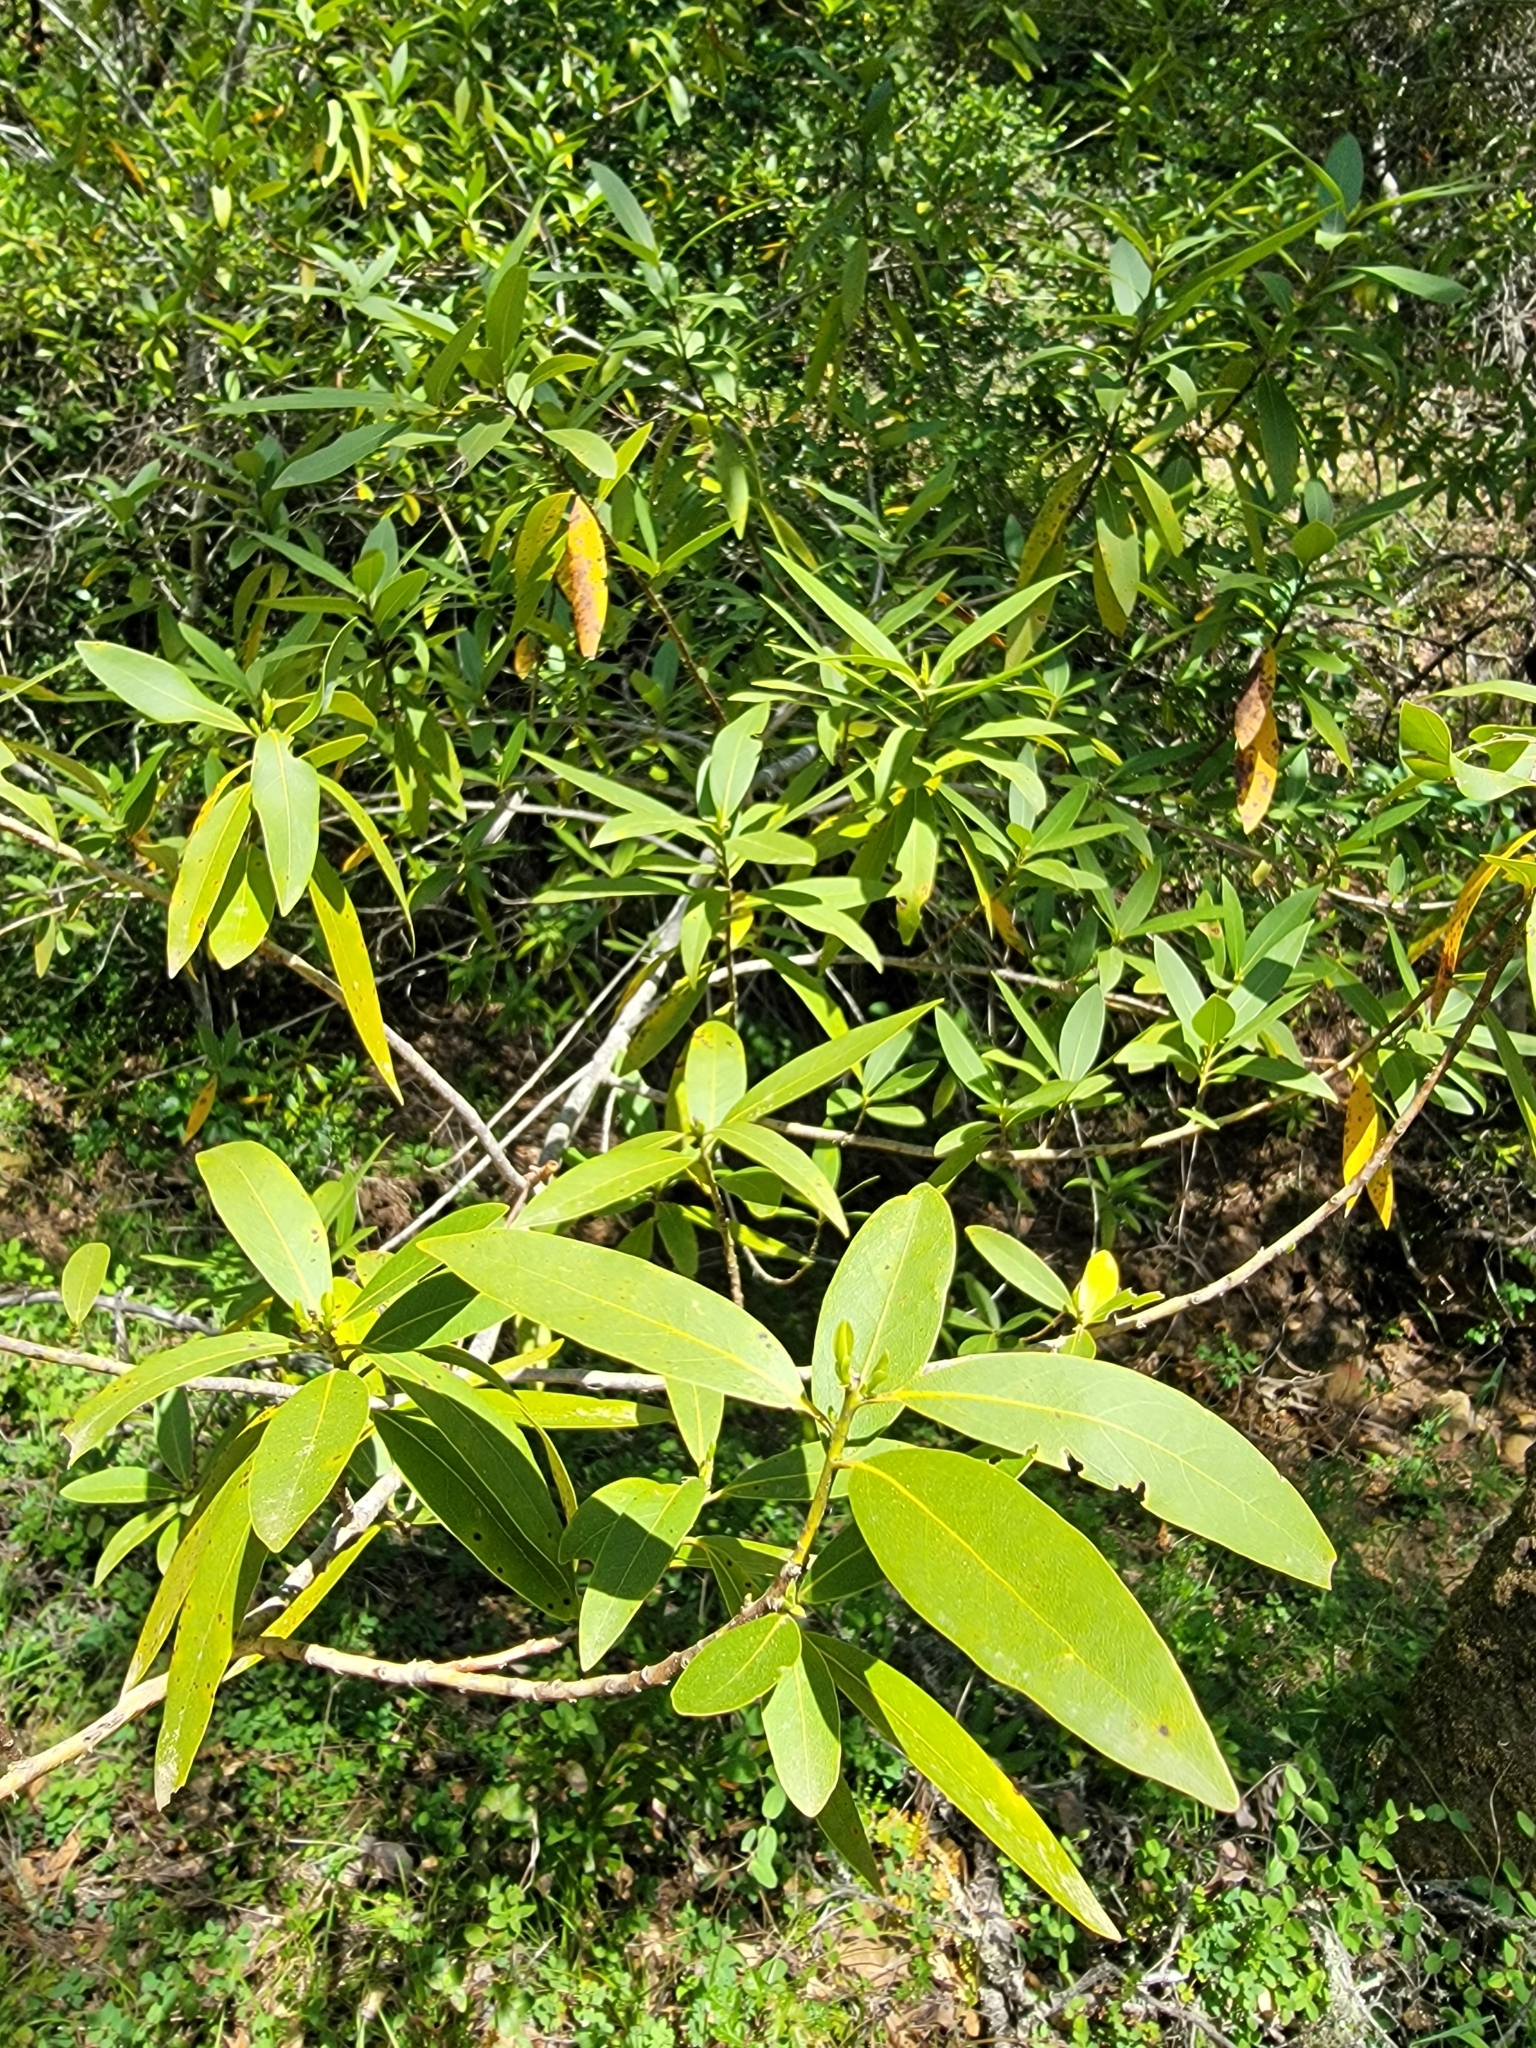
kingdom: Plantae
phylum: Tracheophyta
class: Magnoliopsida
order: Laurales
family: Lauraceae
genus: Umbellularia
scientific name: Umbellularia californica
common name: California bay
